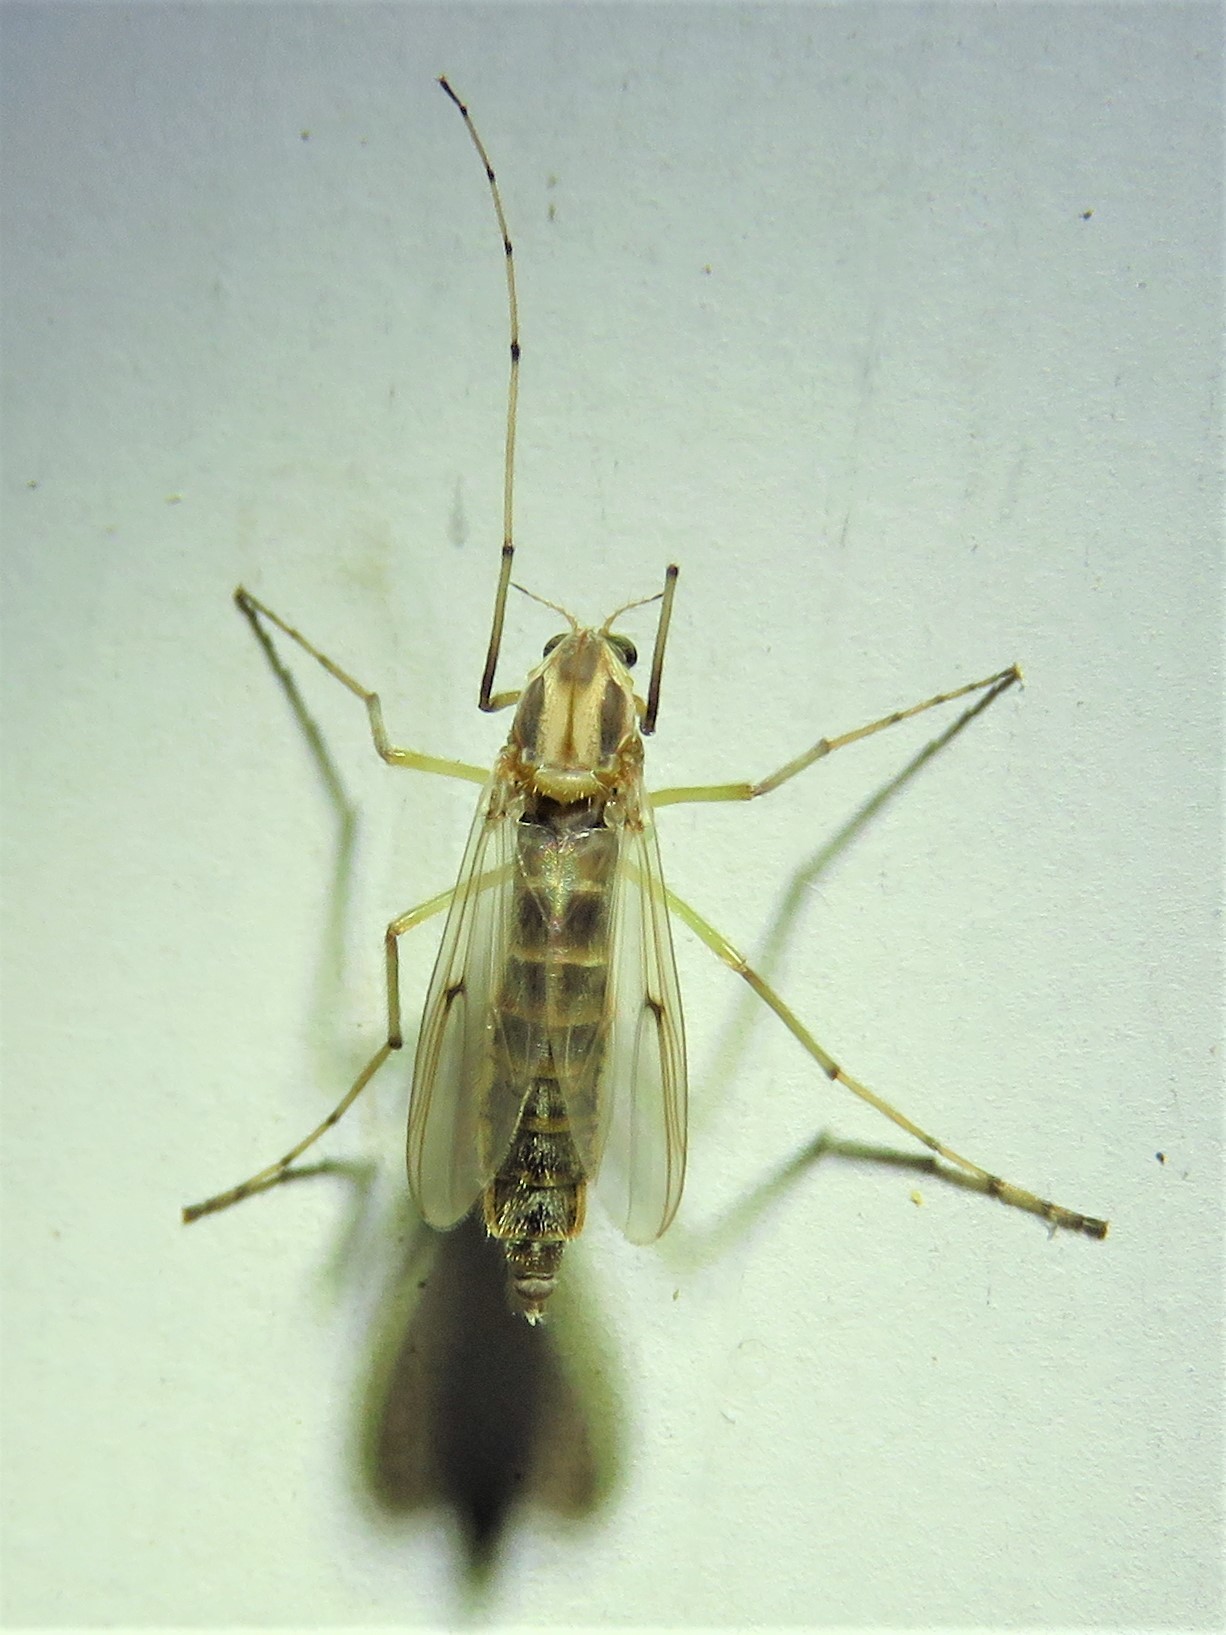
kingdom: Animalia
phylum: Arthropoda
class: Insecta
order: Diptera
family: Chironomidae
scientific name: Chironomidae
